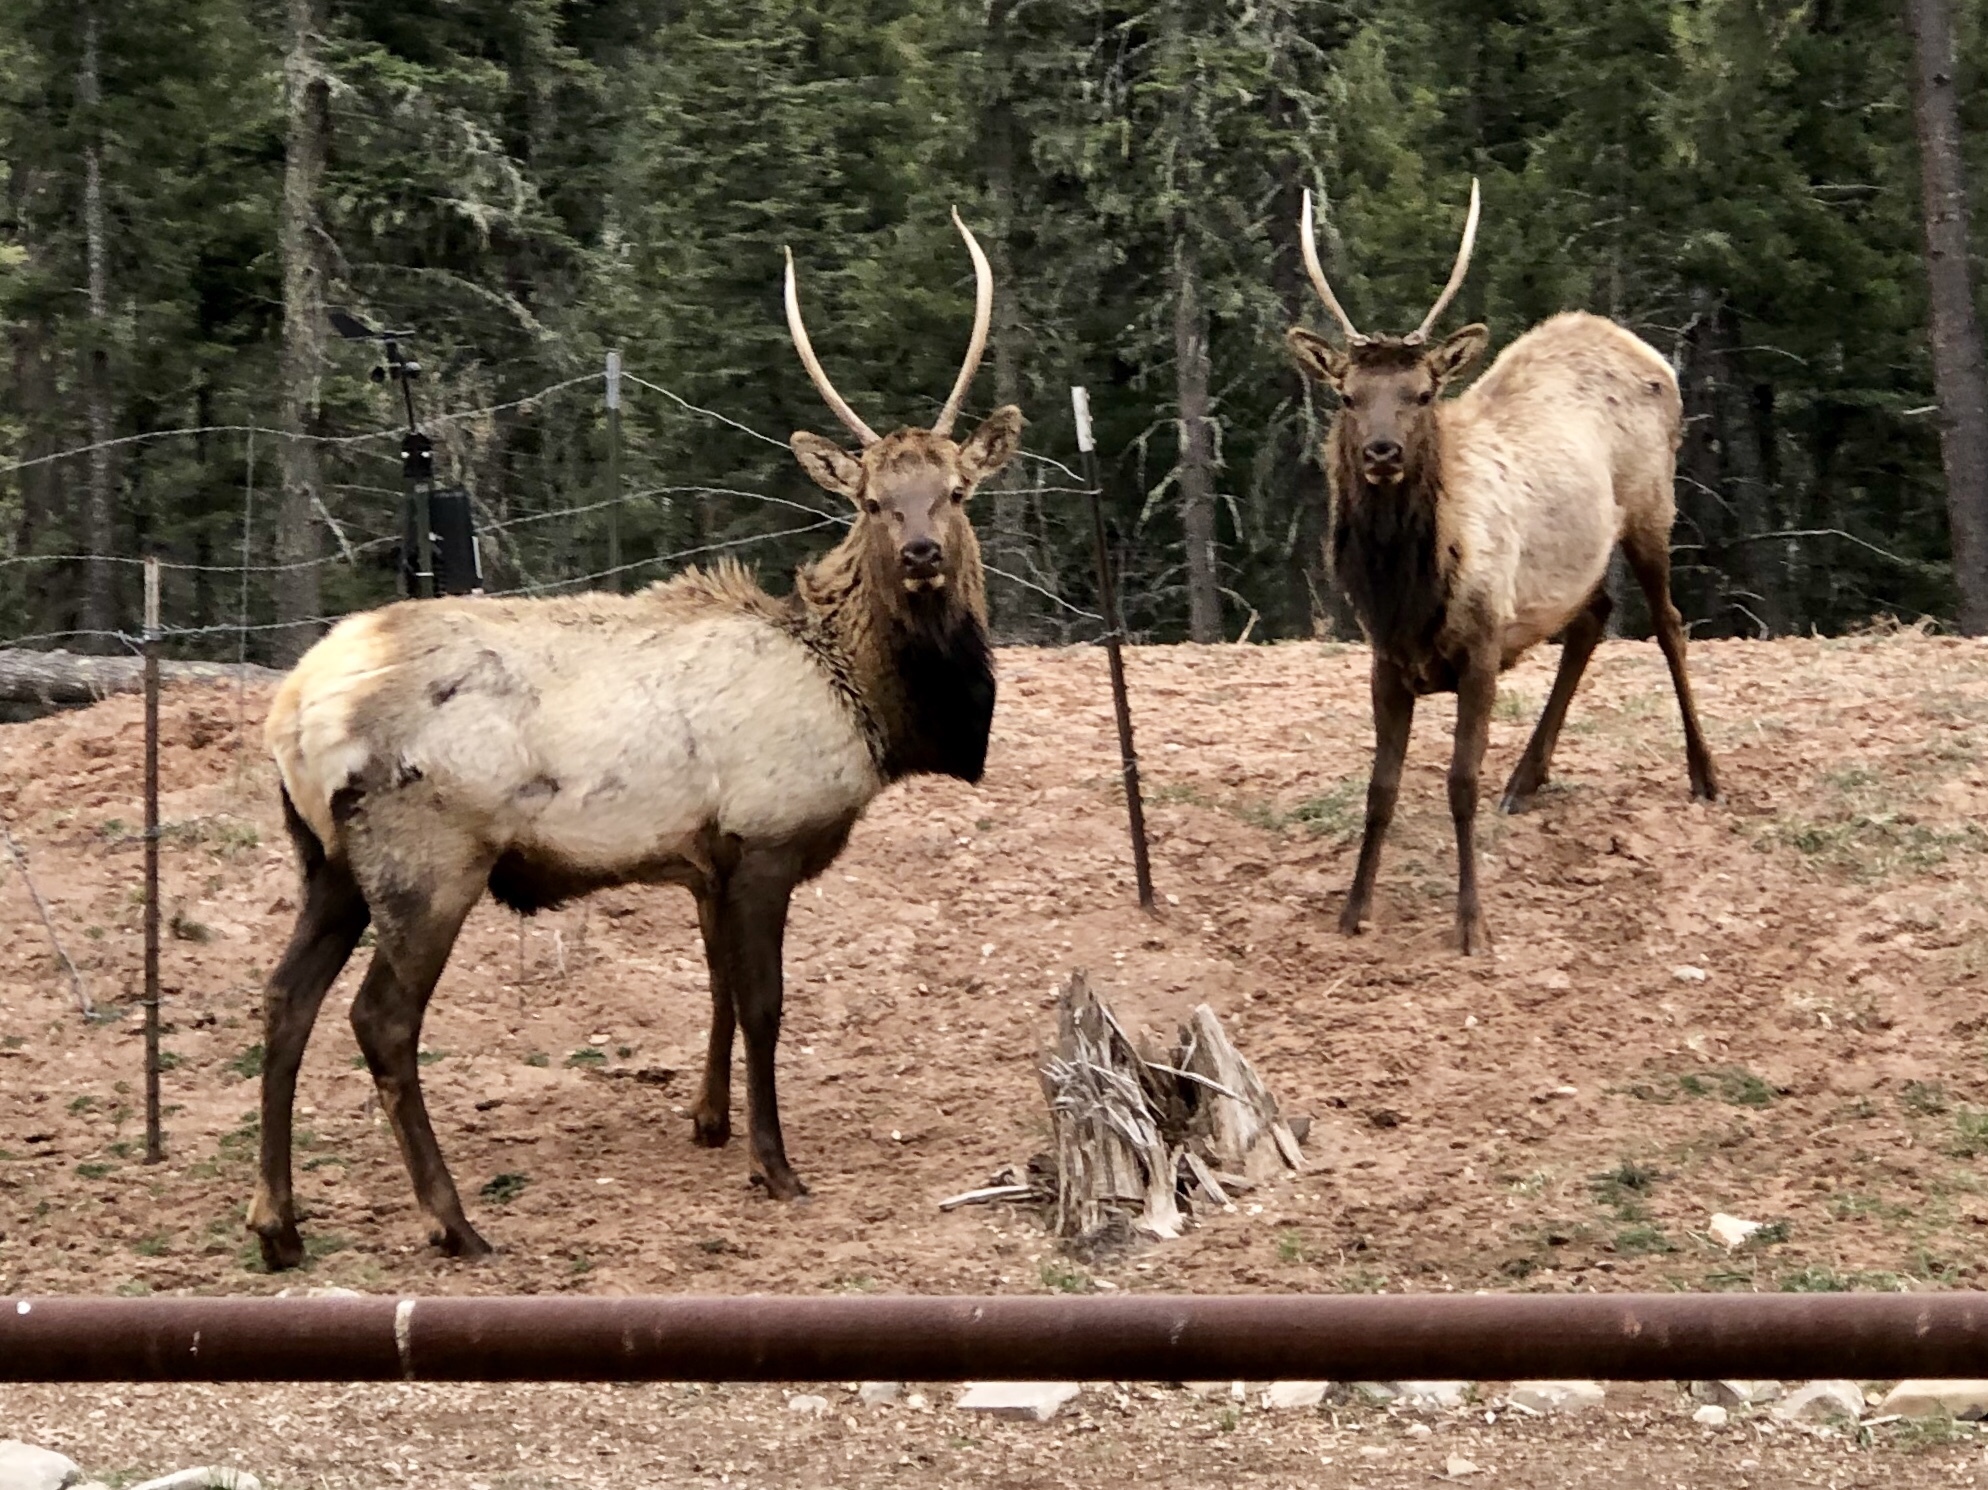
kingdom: Animalia
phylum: Chordata
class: Mammalia
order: Artiodactyla
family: Cervidae
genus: Cervus
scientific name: Cervus elaphus
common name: Red deer
